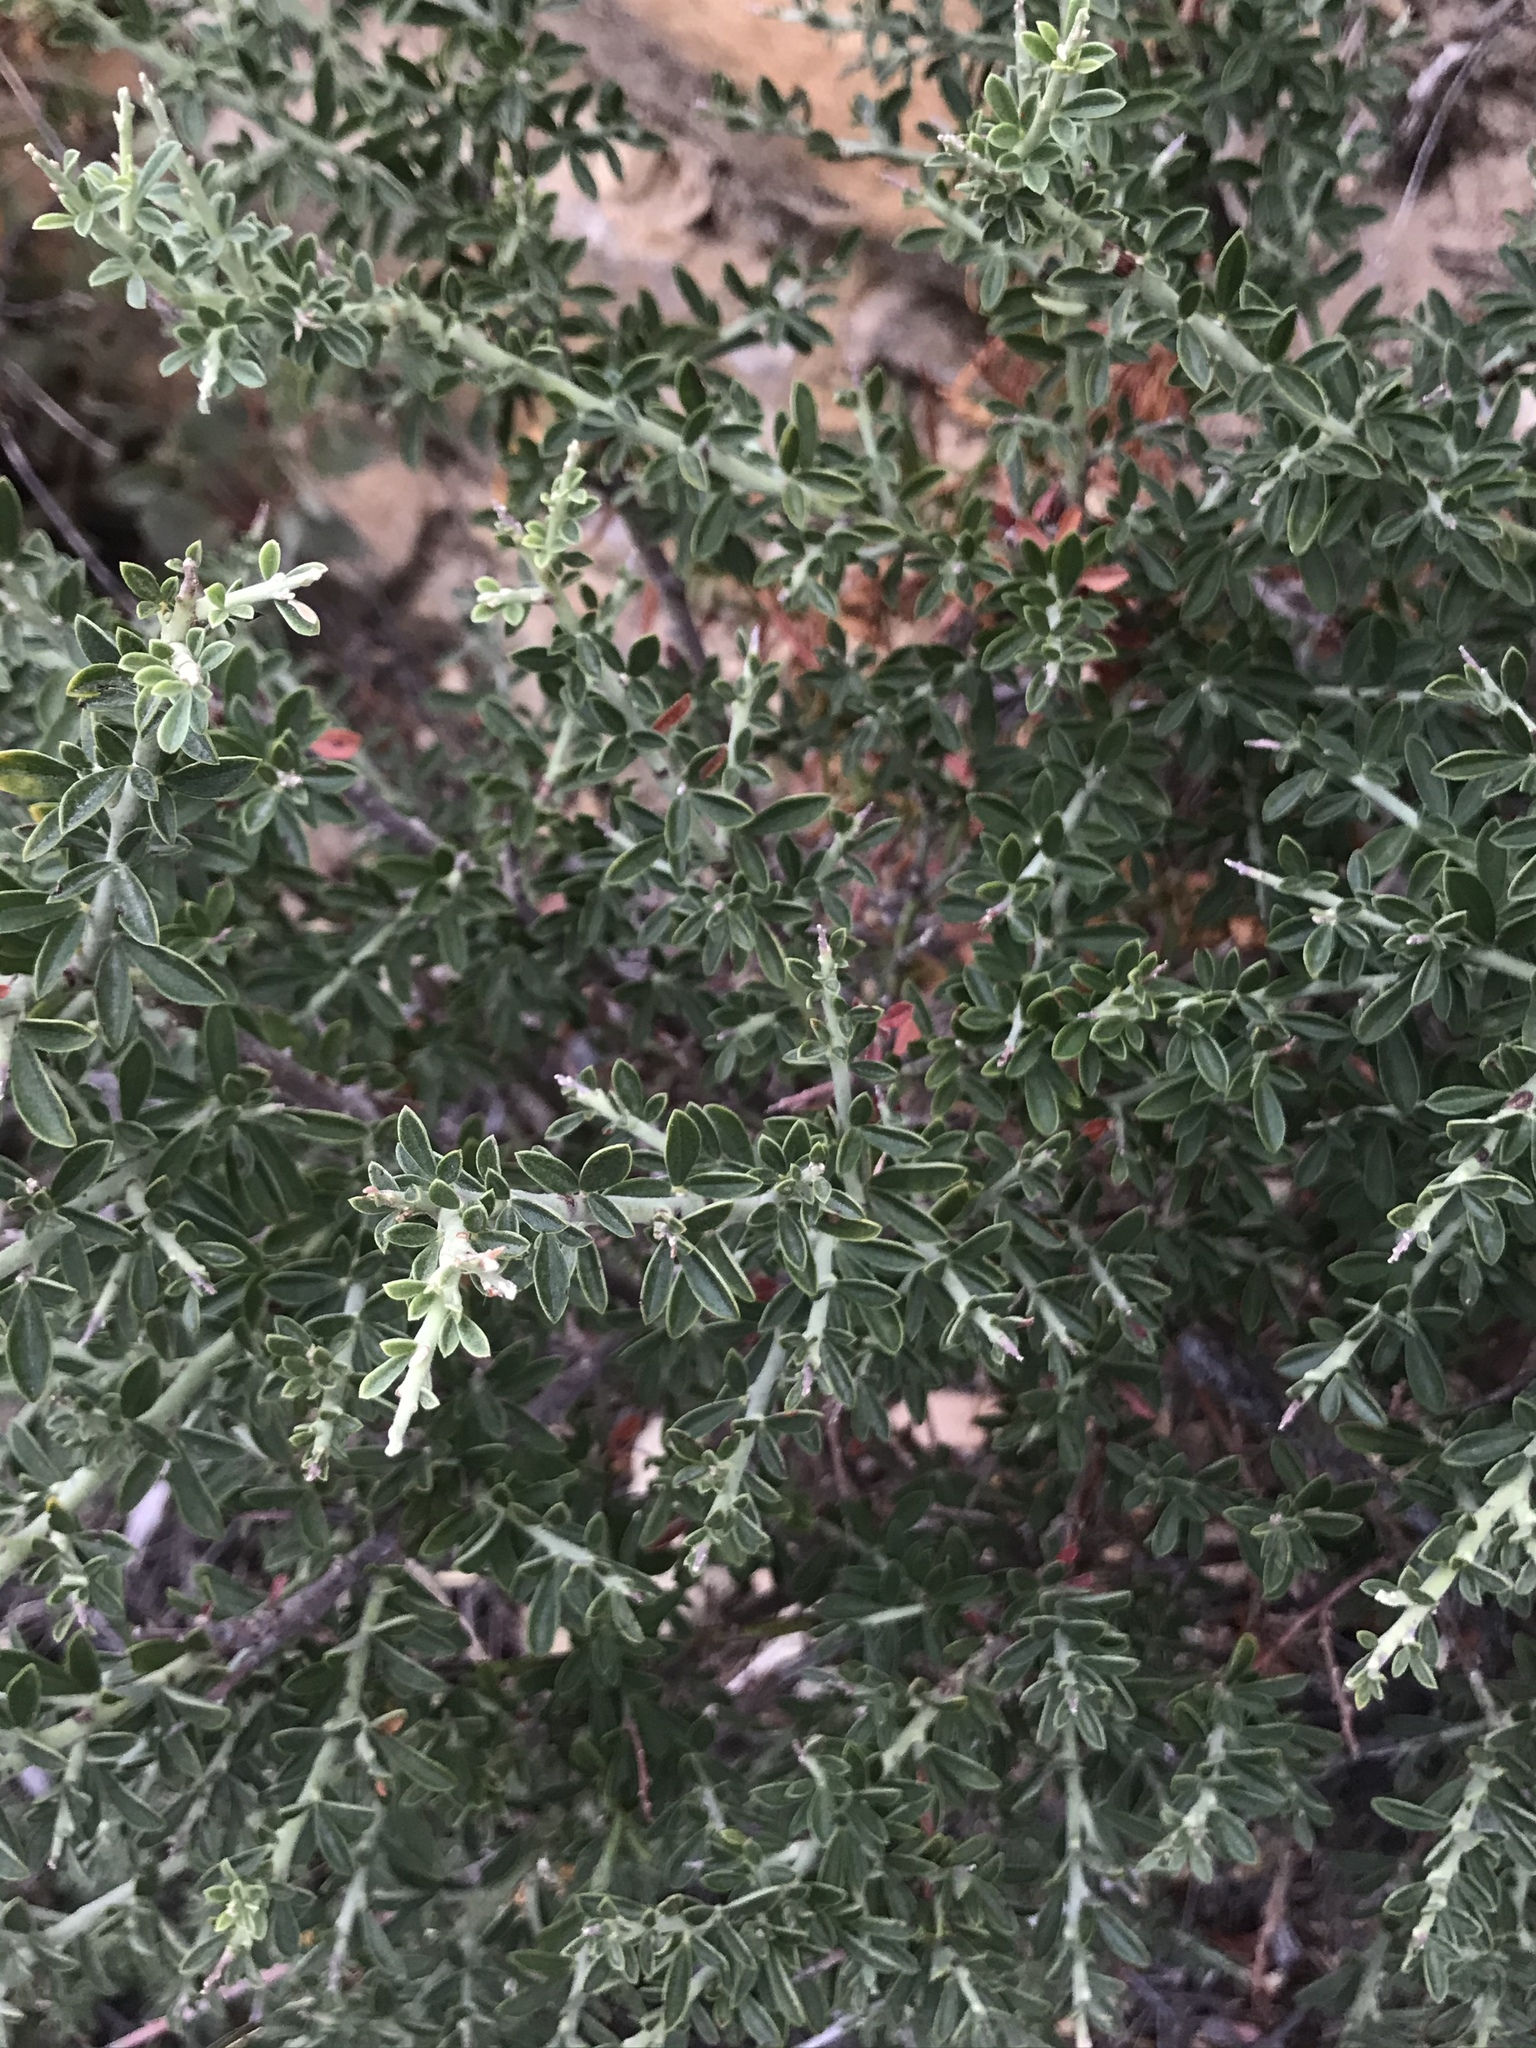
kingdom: Plantae
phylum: Tracheophyta
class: Magnoliopsida
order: Fabales
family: Fabaceae
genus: Pickeringia
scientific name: Pickeringia montana
